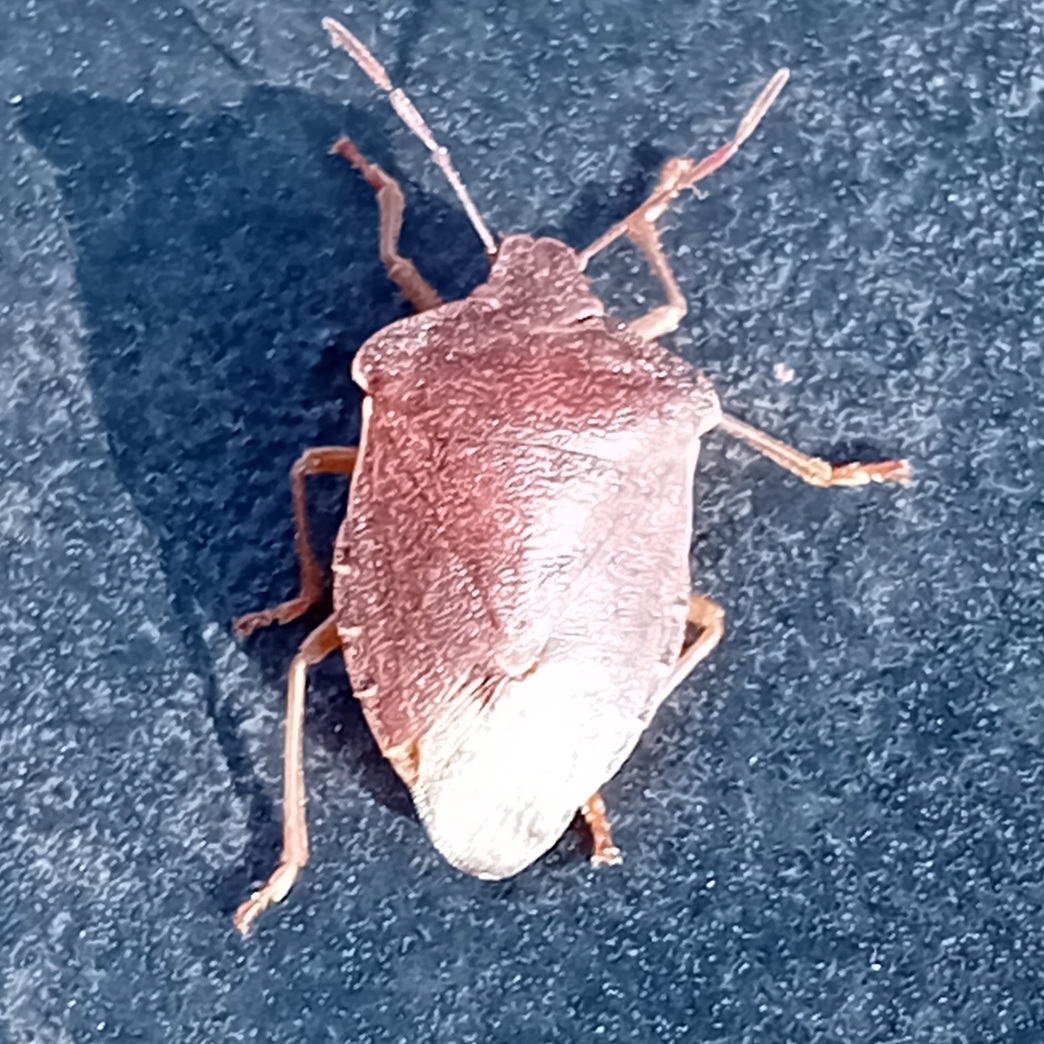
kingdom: Animalia
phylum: Arthropoda
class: Insecta
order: Hemiptera
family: Pentatomidae
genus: Palomena
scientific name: Palomena prasina
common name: Green shieldbug
